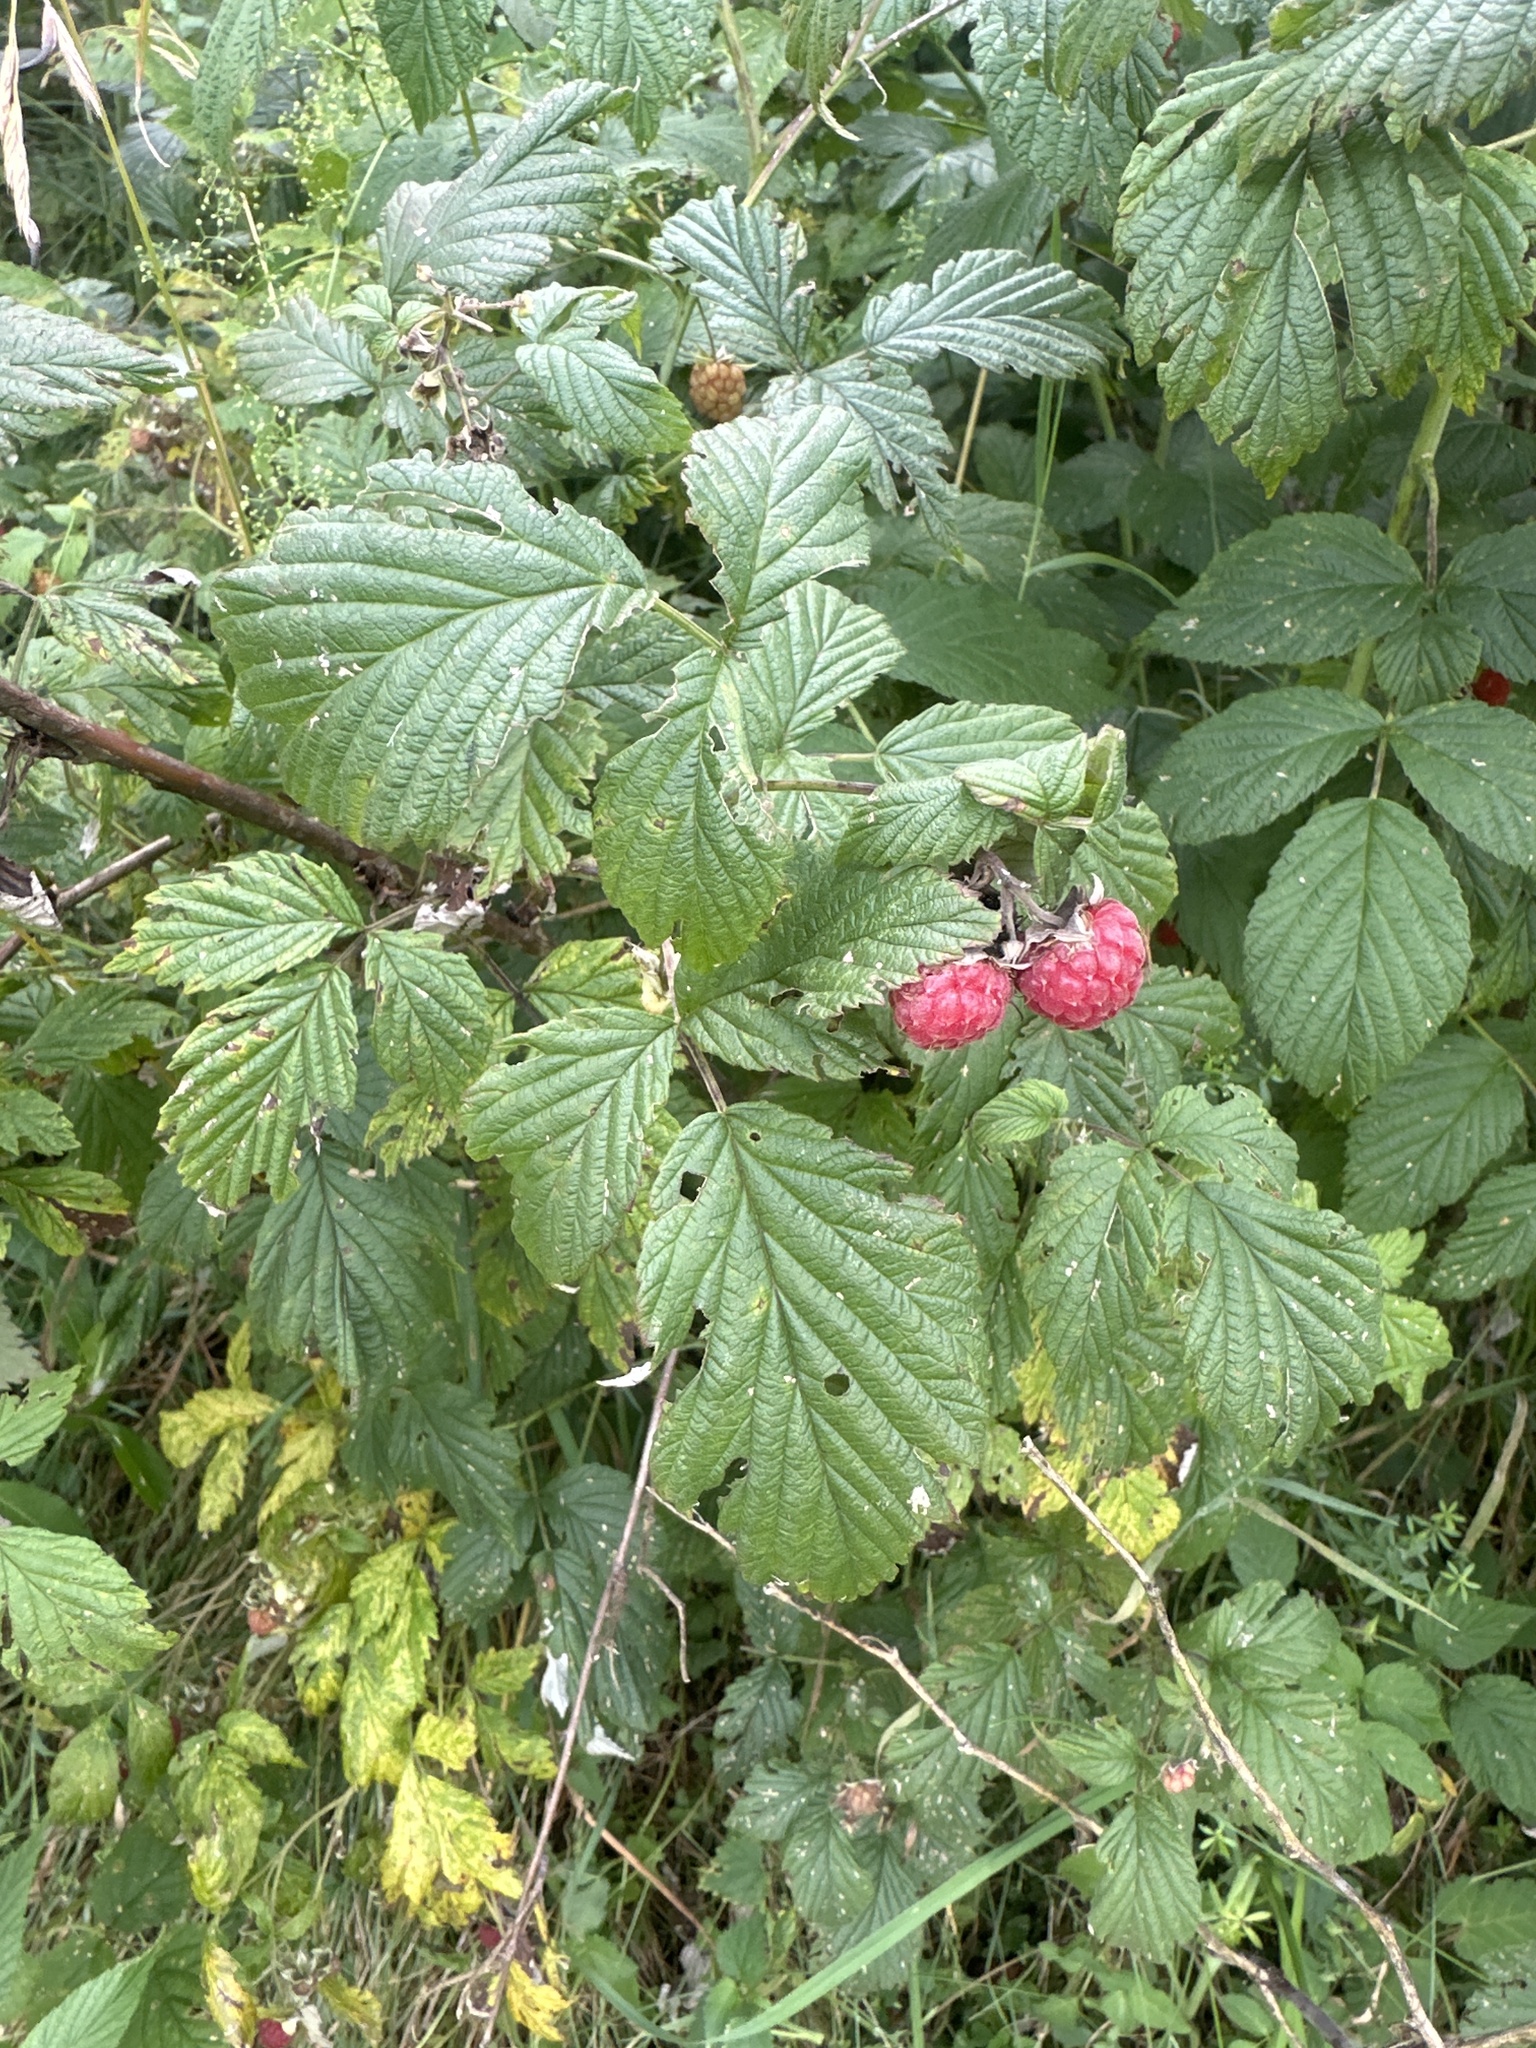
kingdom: Plantae
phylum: Tracheophyta
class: Magnoliopsida
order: Rosales
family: Rosaceae
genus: Rubus
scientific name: Rubus idaeus
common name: Raspberry
